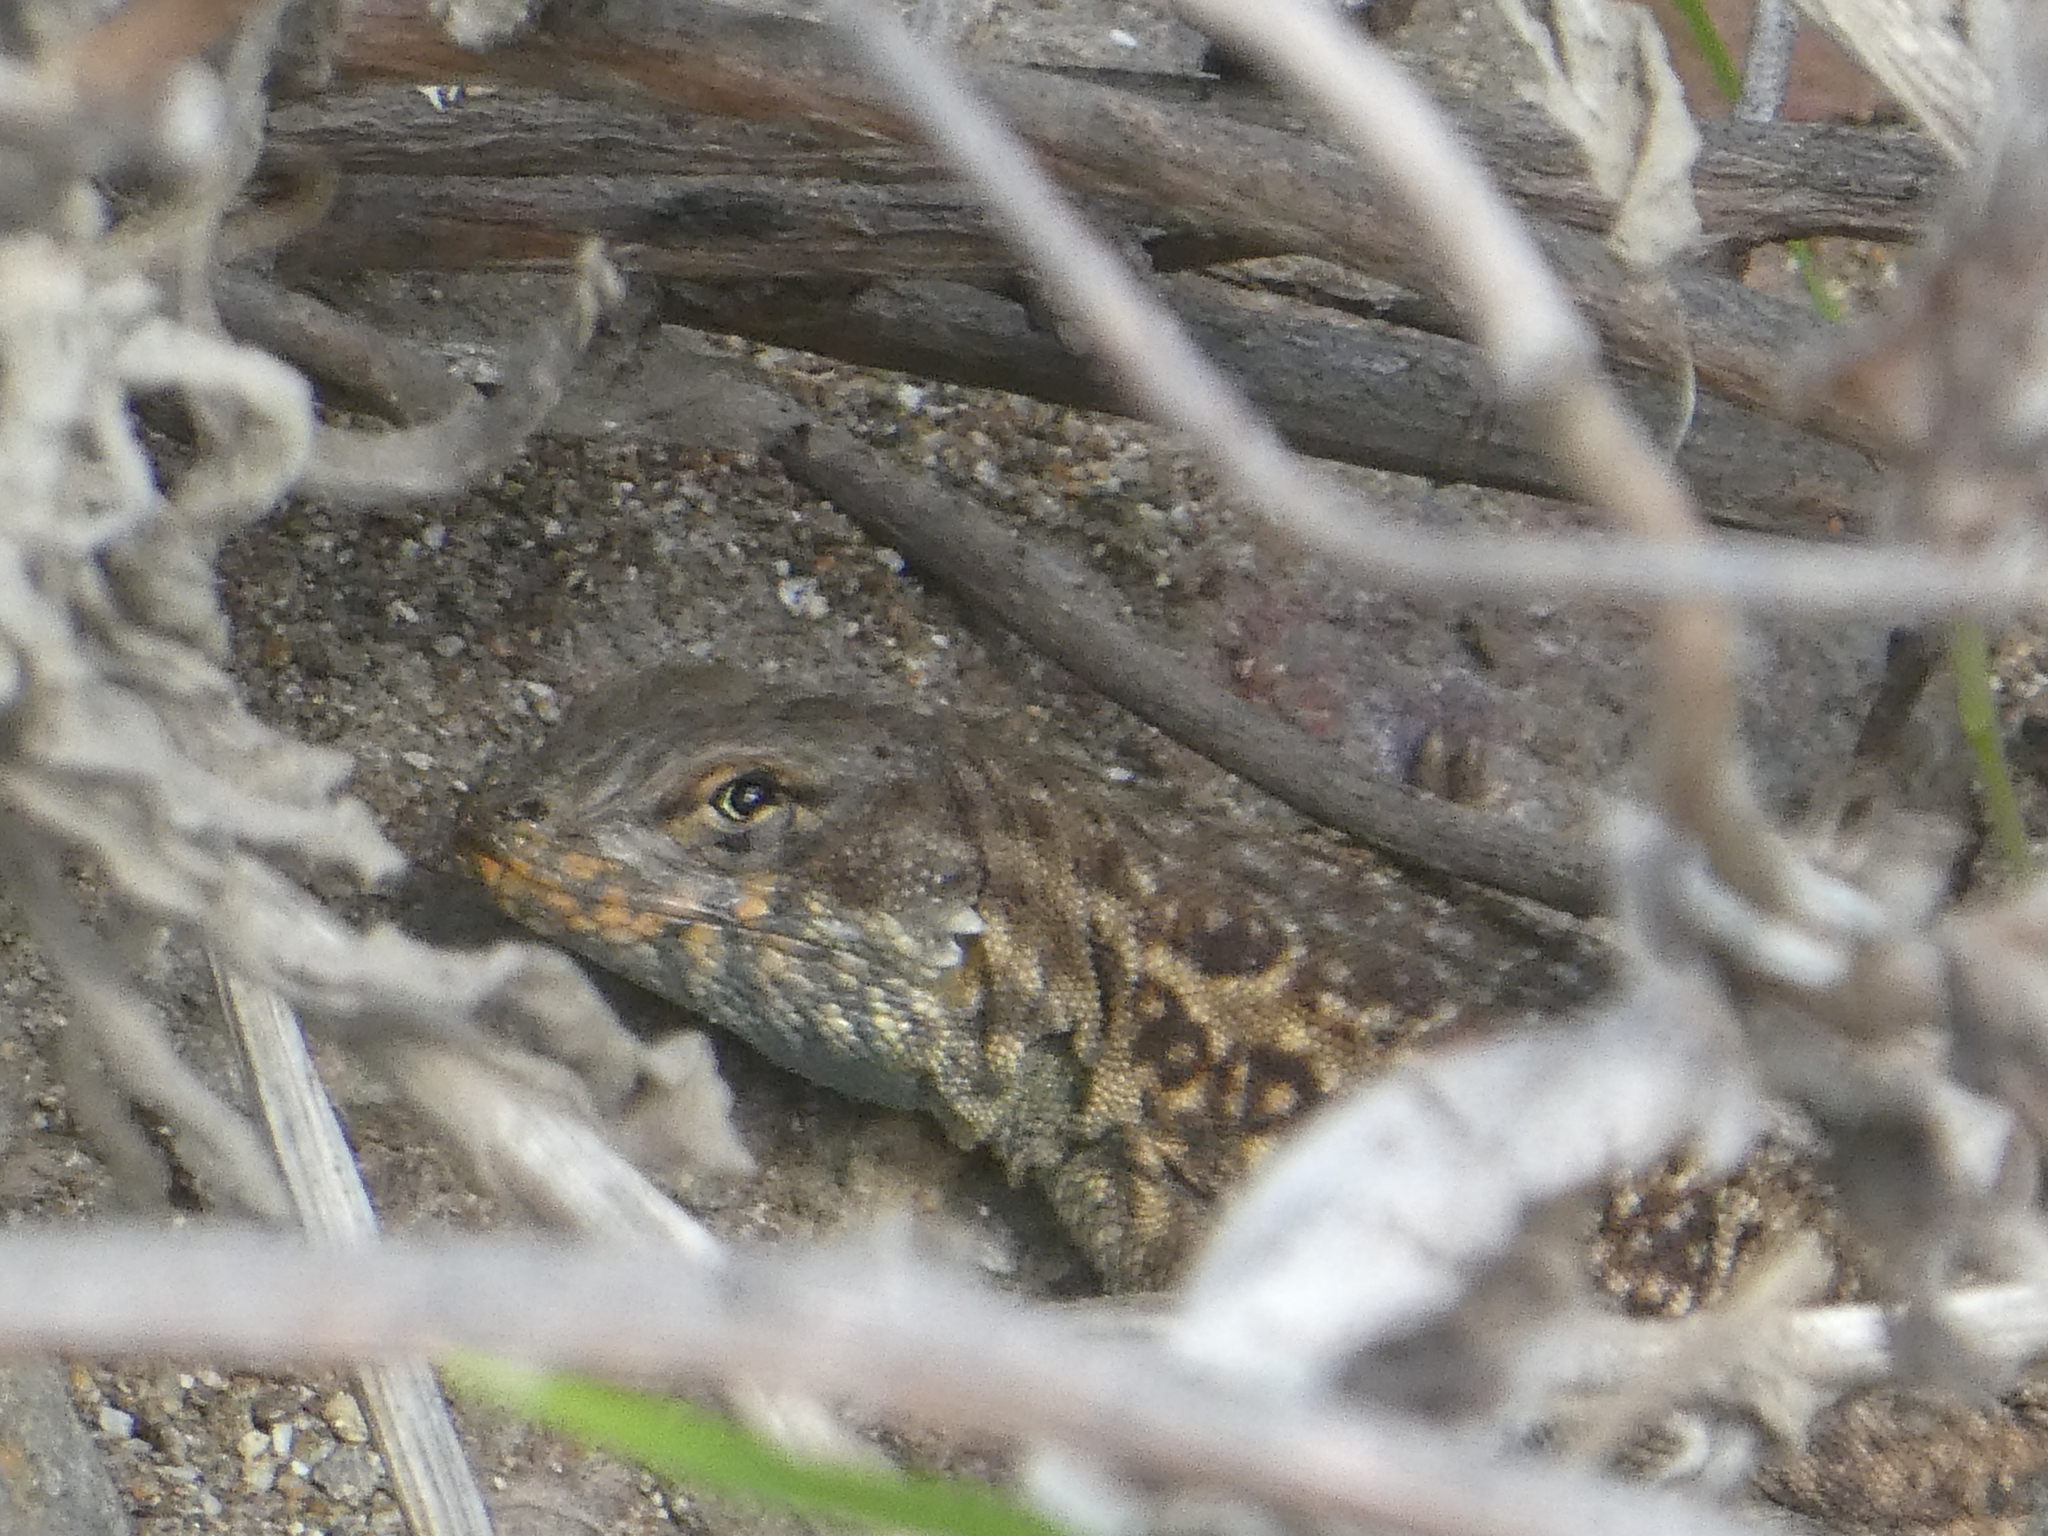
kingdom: Animalia
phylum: Chordata
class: Squamata
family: Phrynosomatidae
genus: Uta
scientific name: Uta stansburiana
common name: Side-blotched lizard
